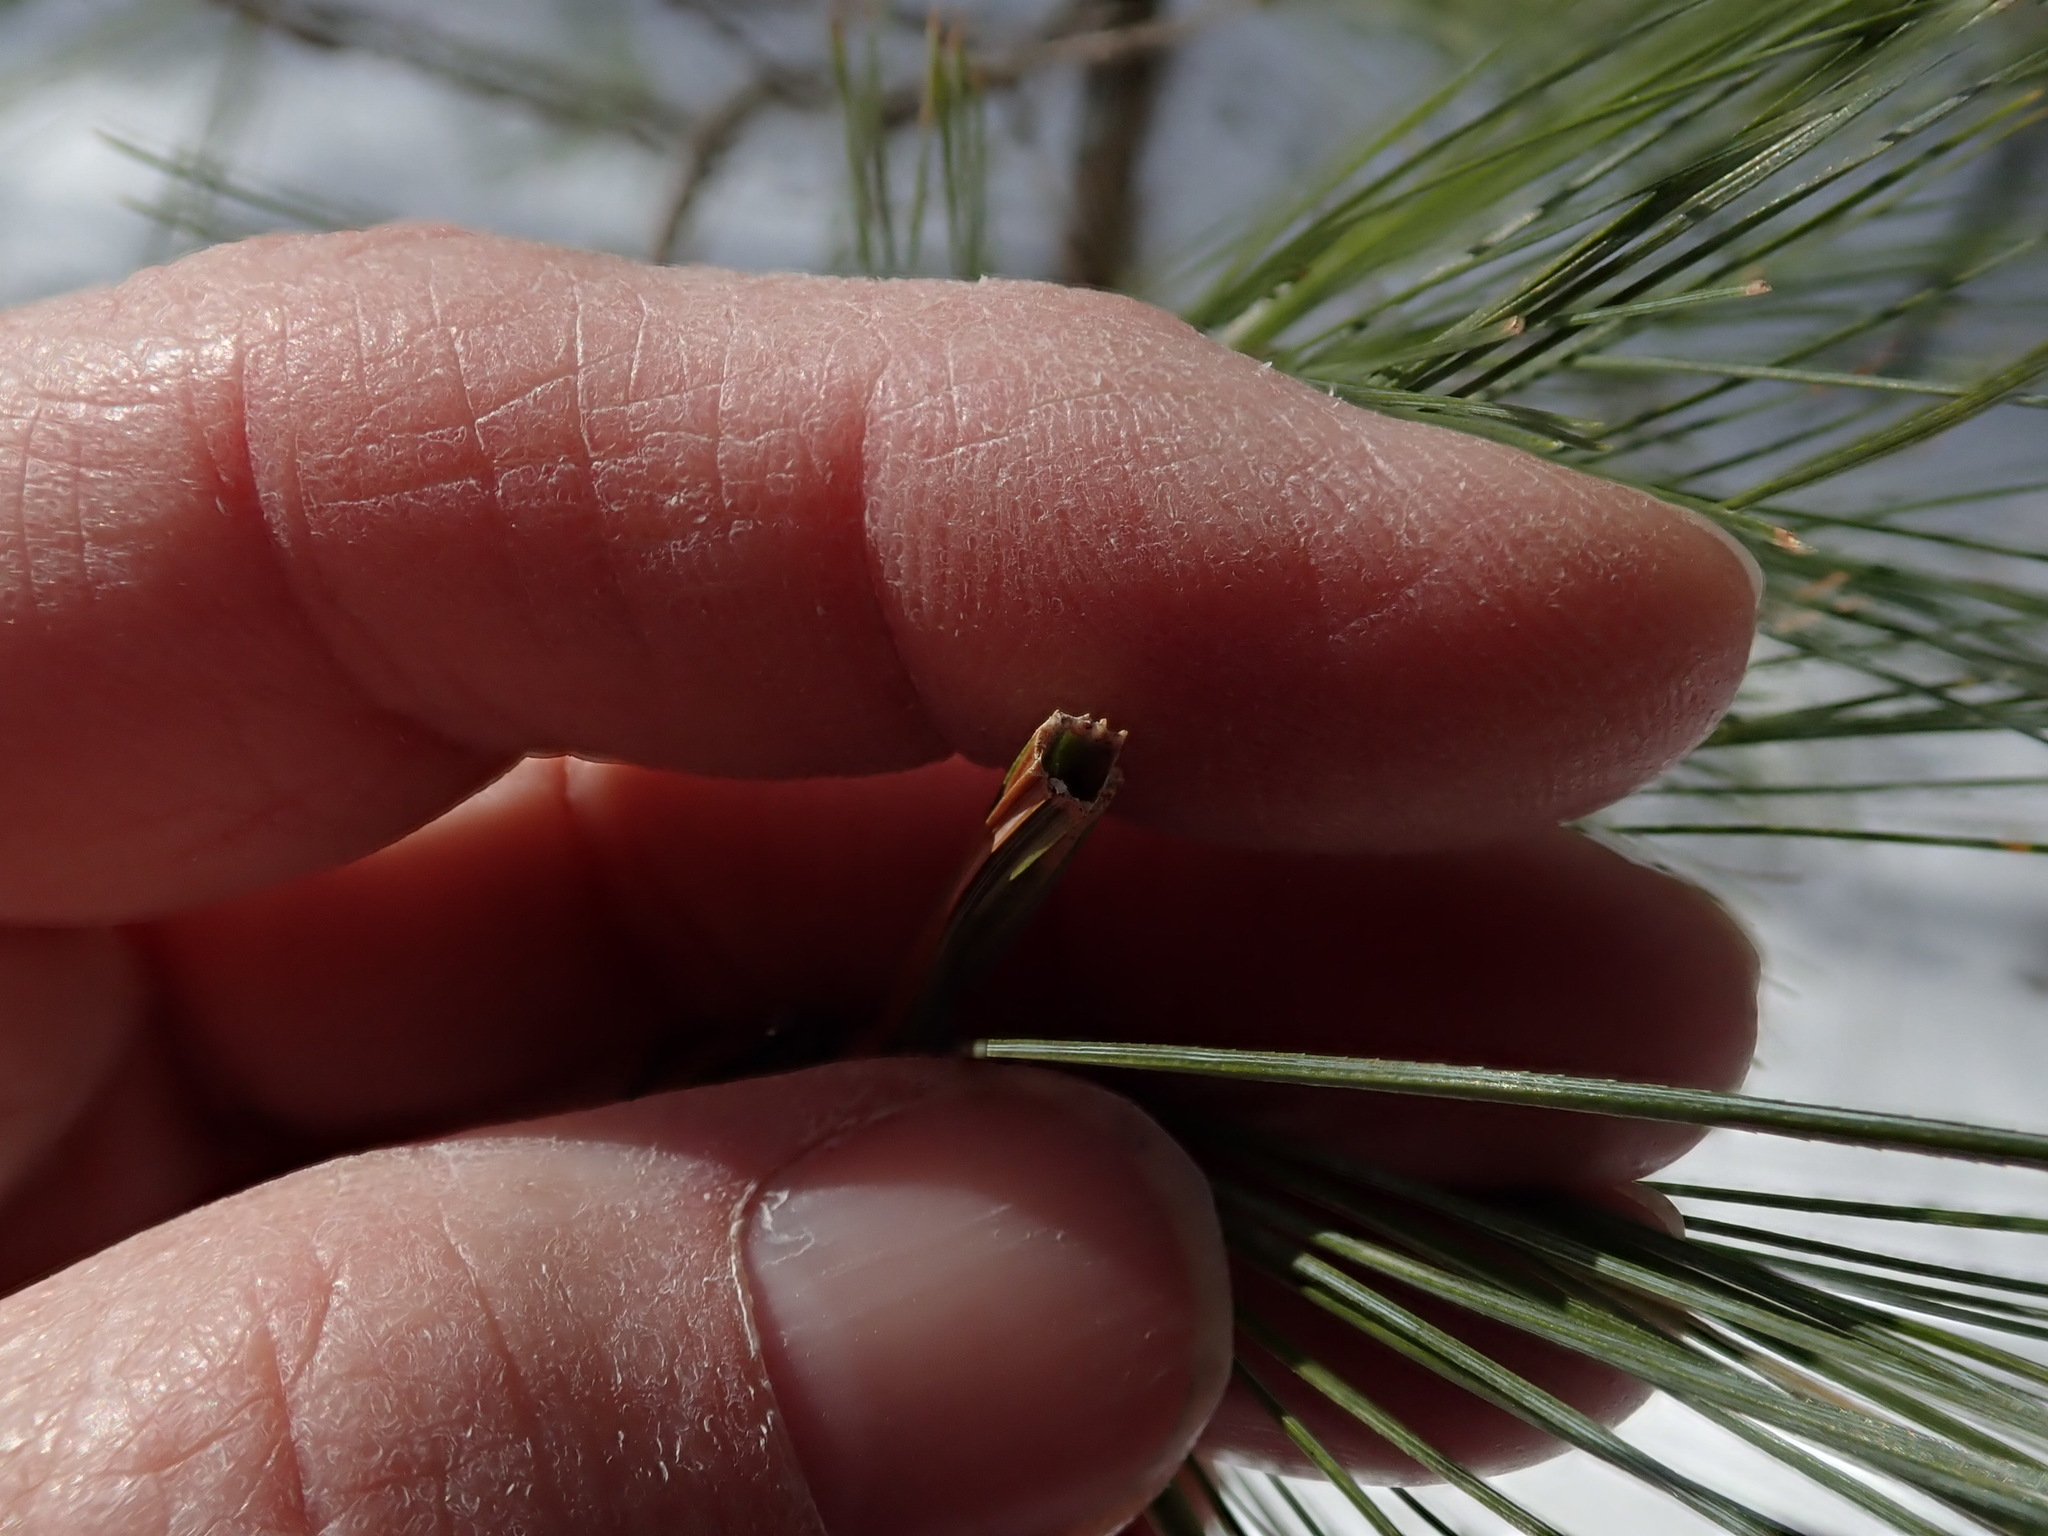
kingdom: Animalia
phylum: Arthropoda
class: Insecta
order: Lepidoptera
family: Tortricidae
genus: Argyrotaenia
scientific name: Argyrotaenia pinatubana
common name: Pine tube moth
